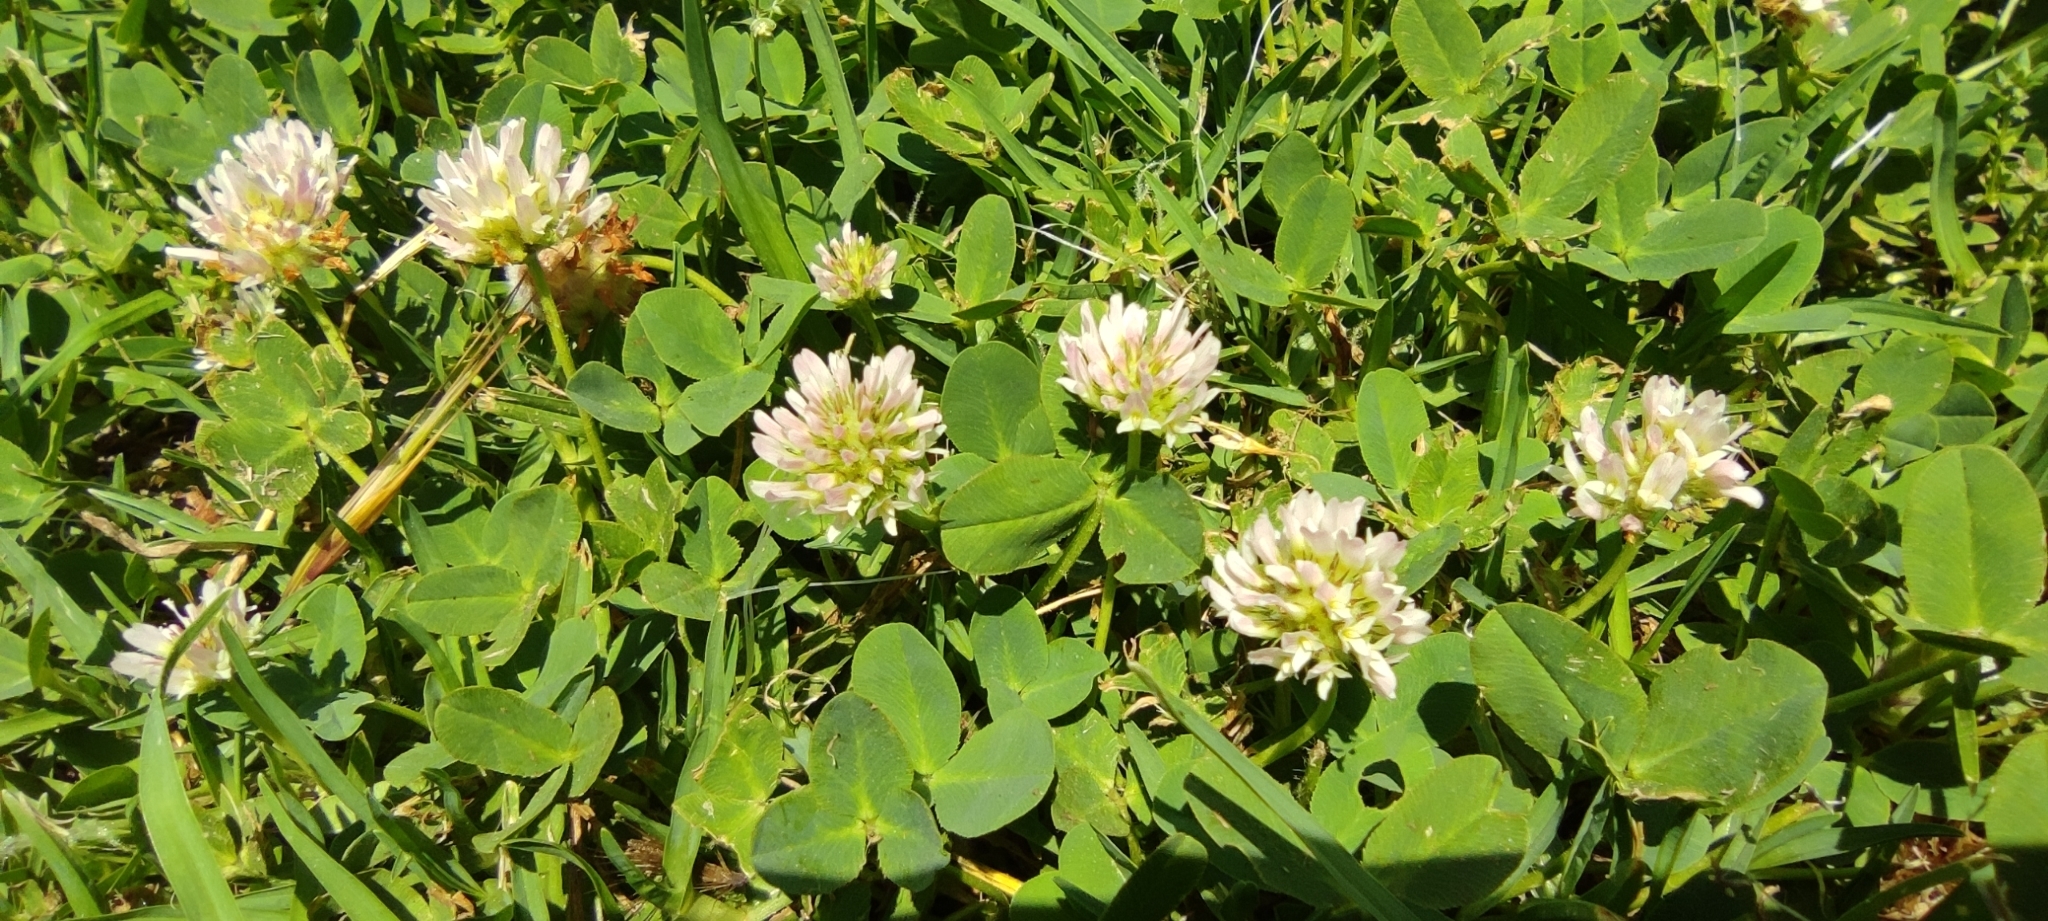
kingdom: Plantae
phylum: Tracheophyta
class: Magnoliopsida
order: Fabales
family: Fabaceae
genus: Trifolium
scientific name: Trifolium fragiferum
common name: Strawberry clover
